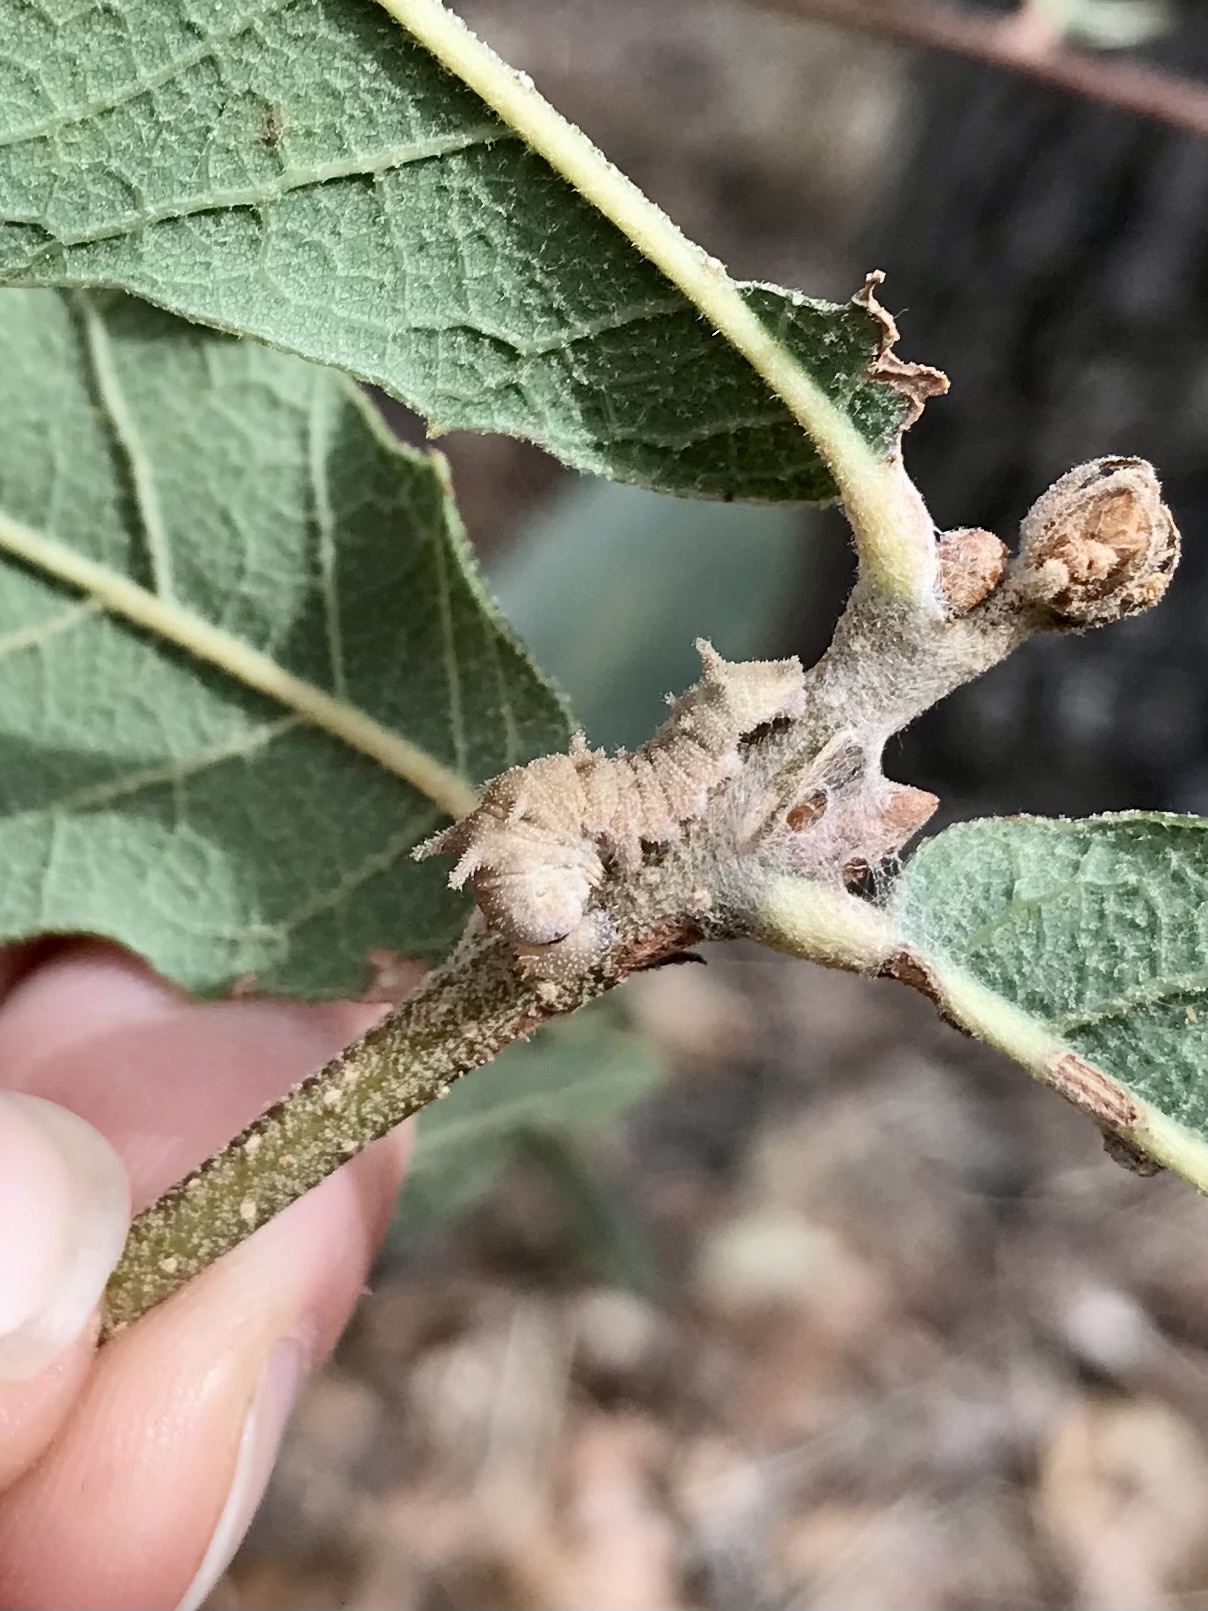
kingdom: Animalia
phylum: Arthropoda
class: Insecta
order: Lepidoptera
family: Nymphalidae
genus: Limenitis
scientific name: Limenitis bredowii
